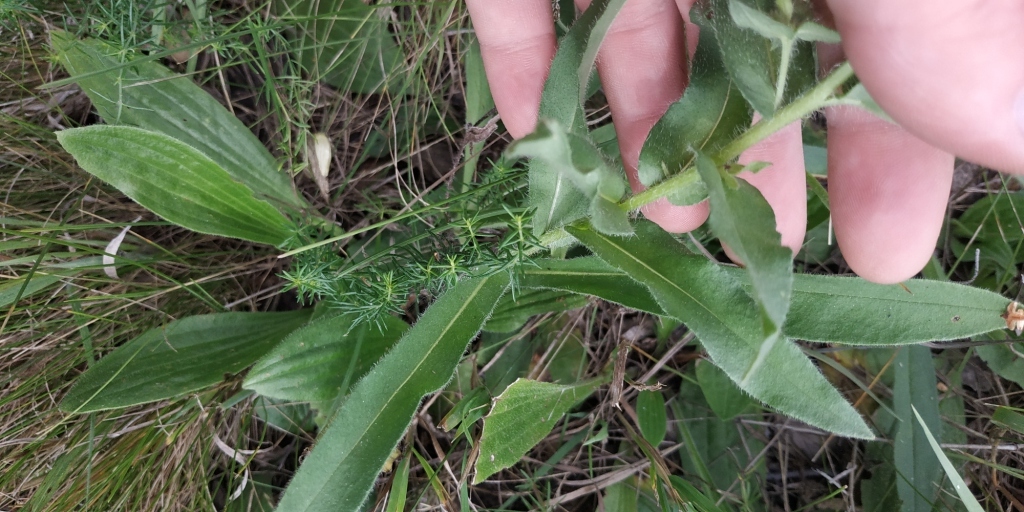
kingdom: Plantae
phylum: Tracheophyta
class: Magnoliopsida
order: Boraginales
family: Boraginaceae
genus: Nonea
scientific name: Nonea pulla
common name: Brown nonea
